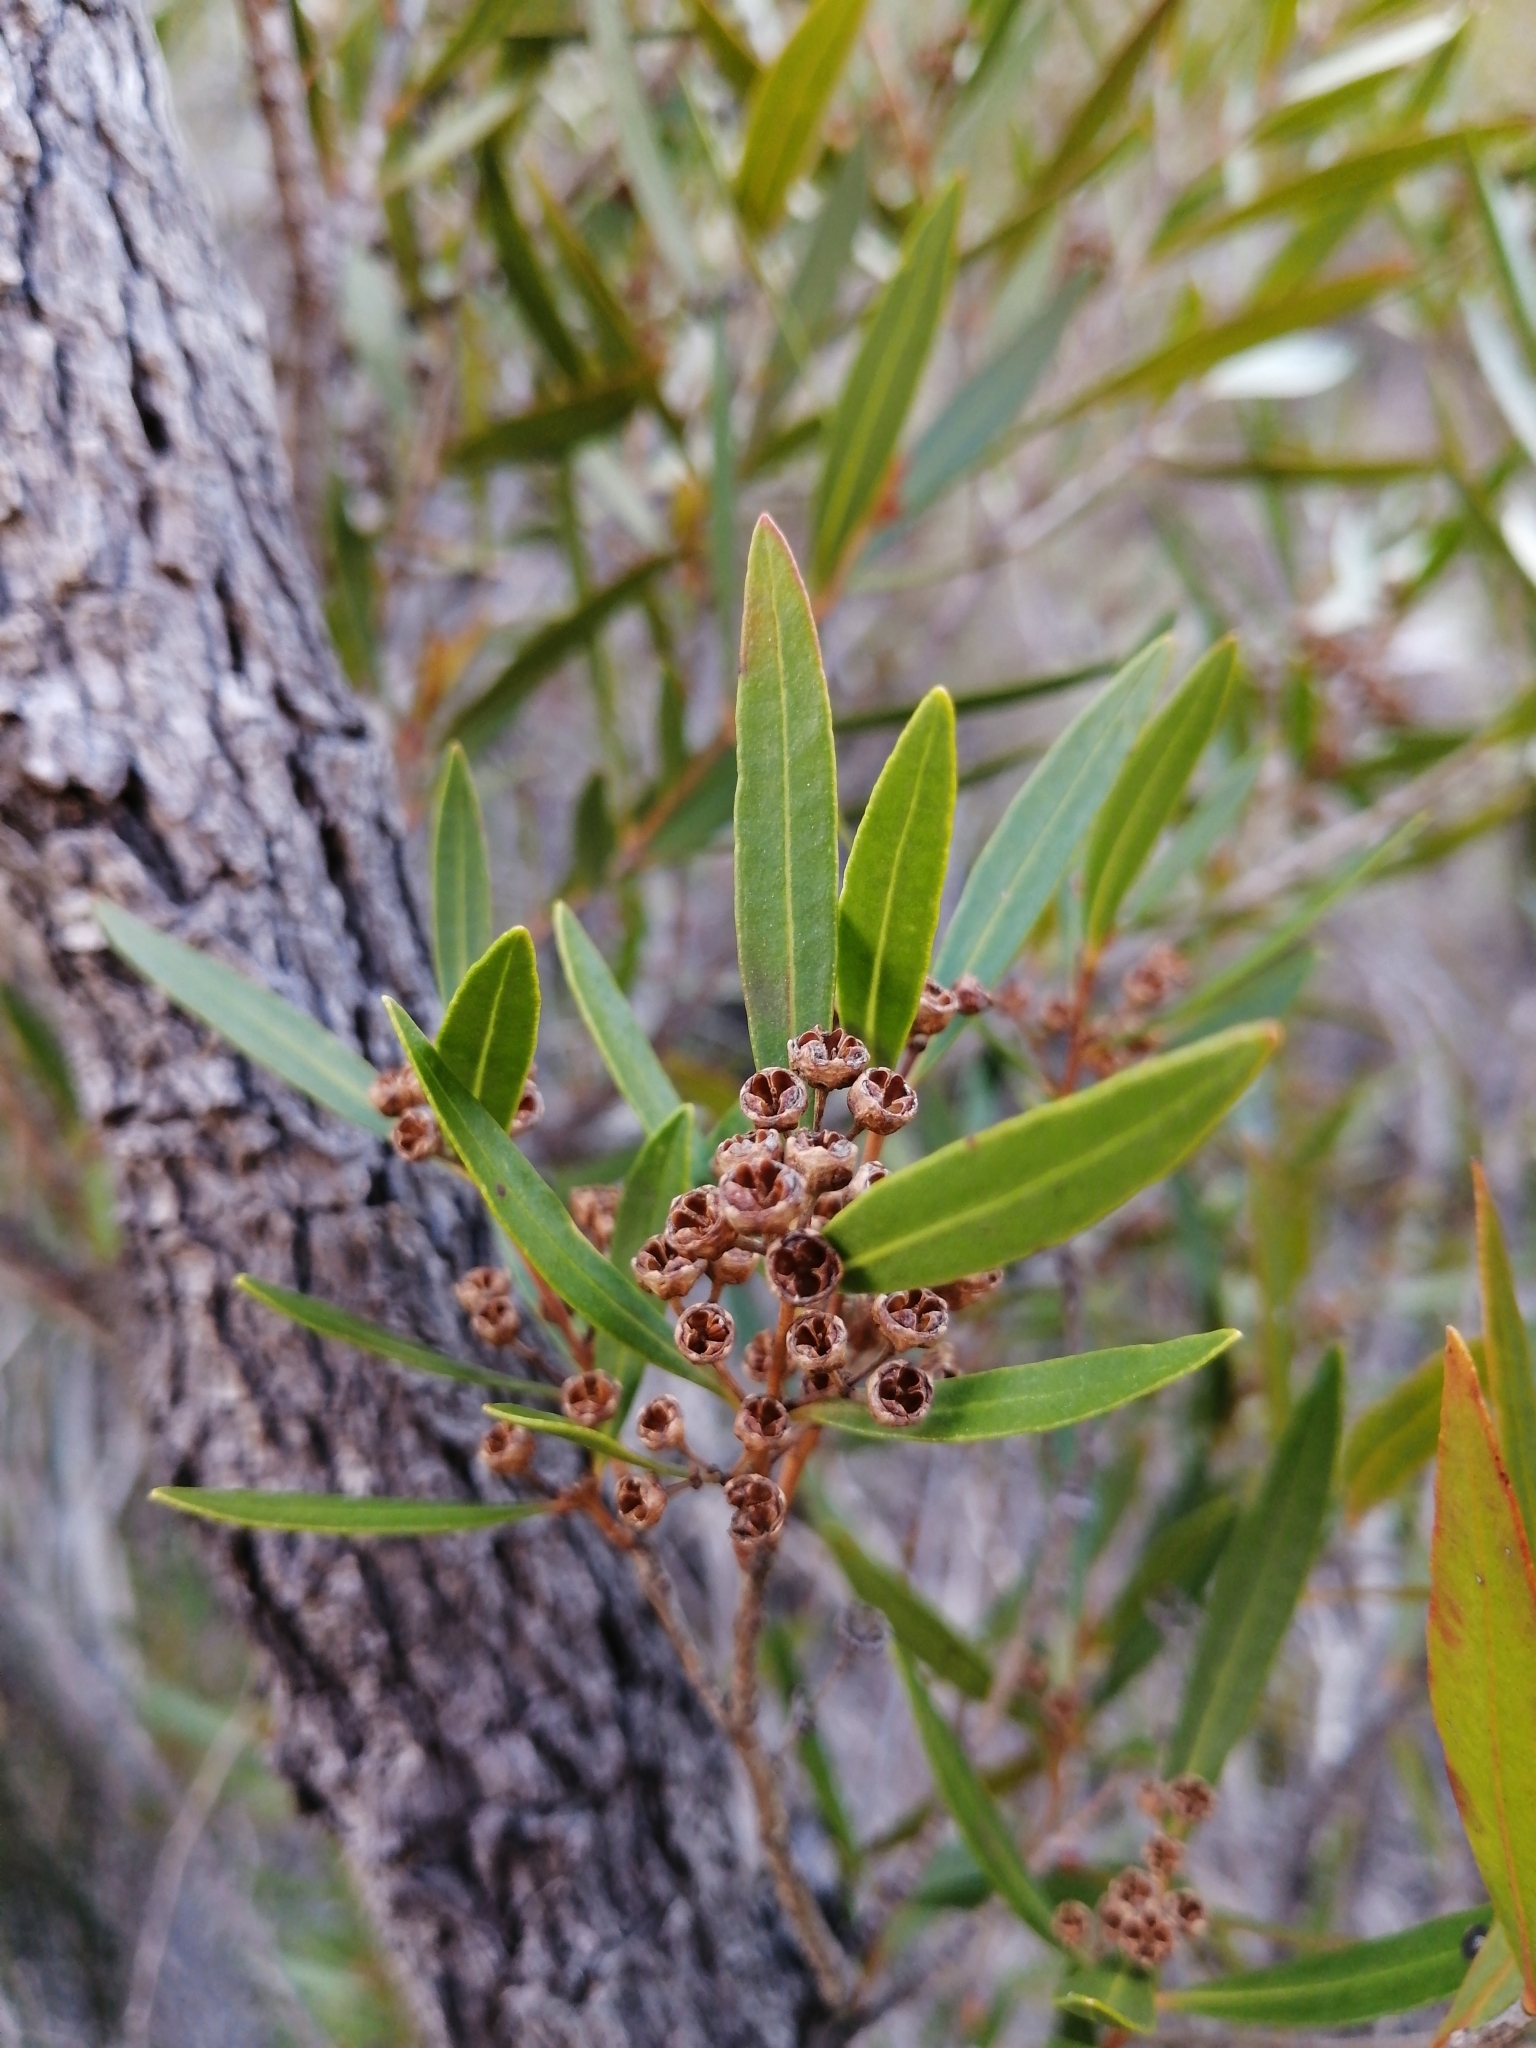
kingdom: Plantae
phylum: Tracheophyta
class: Magnoliopsida
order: Myrtales
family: Myrtaceae
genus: Callistemon
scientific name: Callistemon lanceolatus
